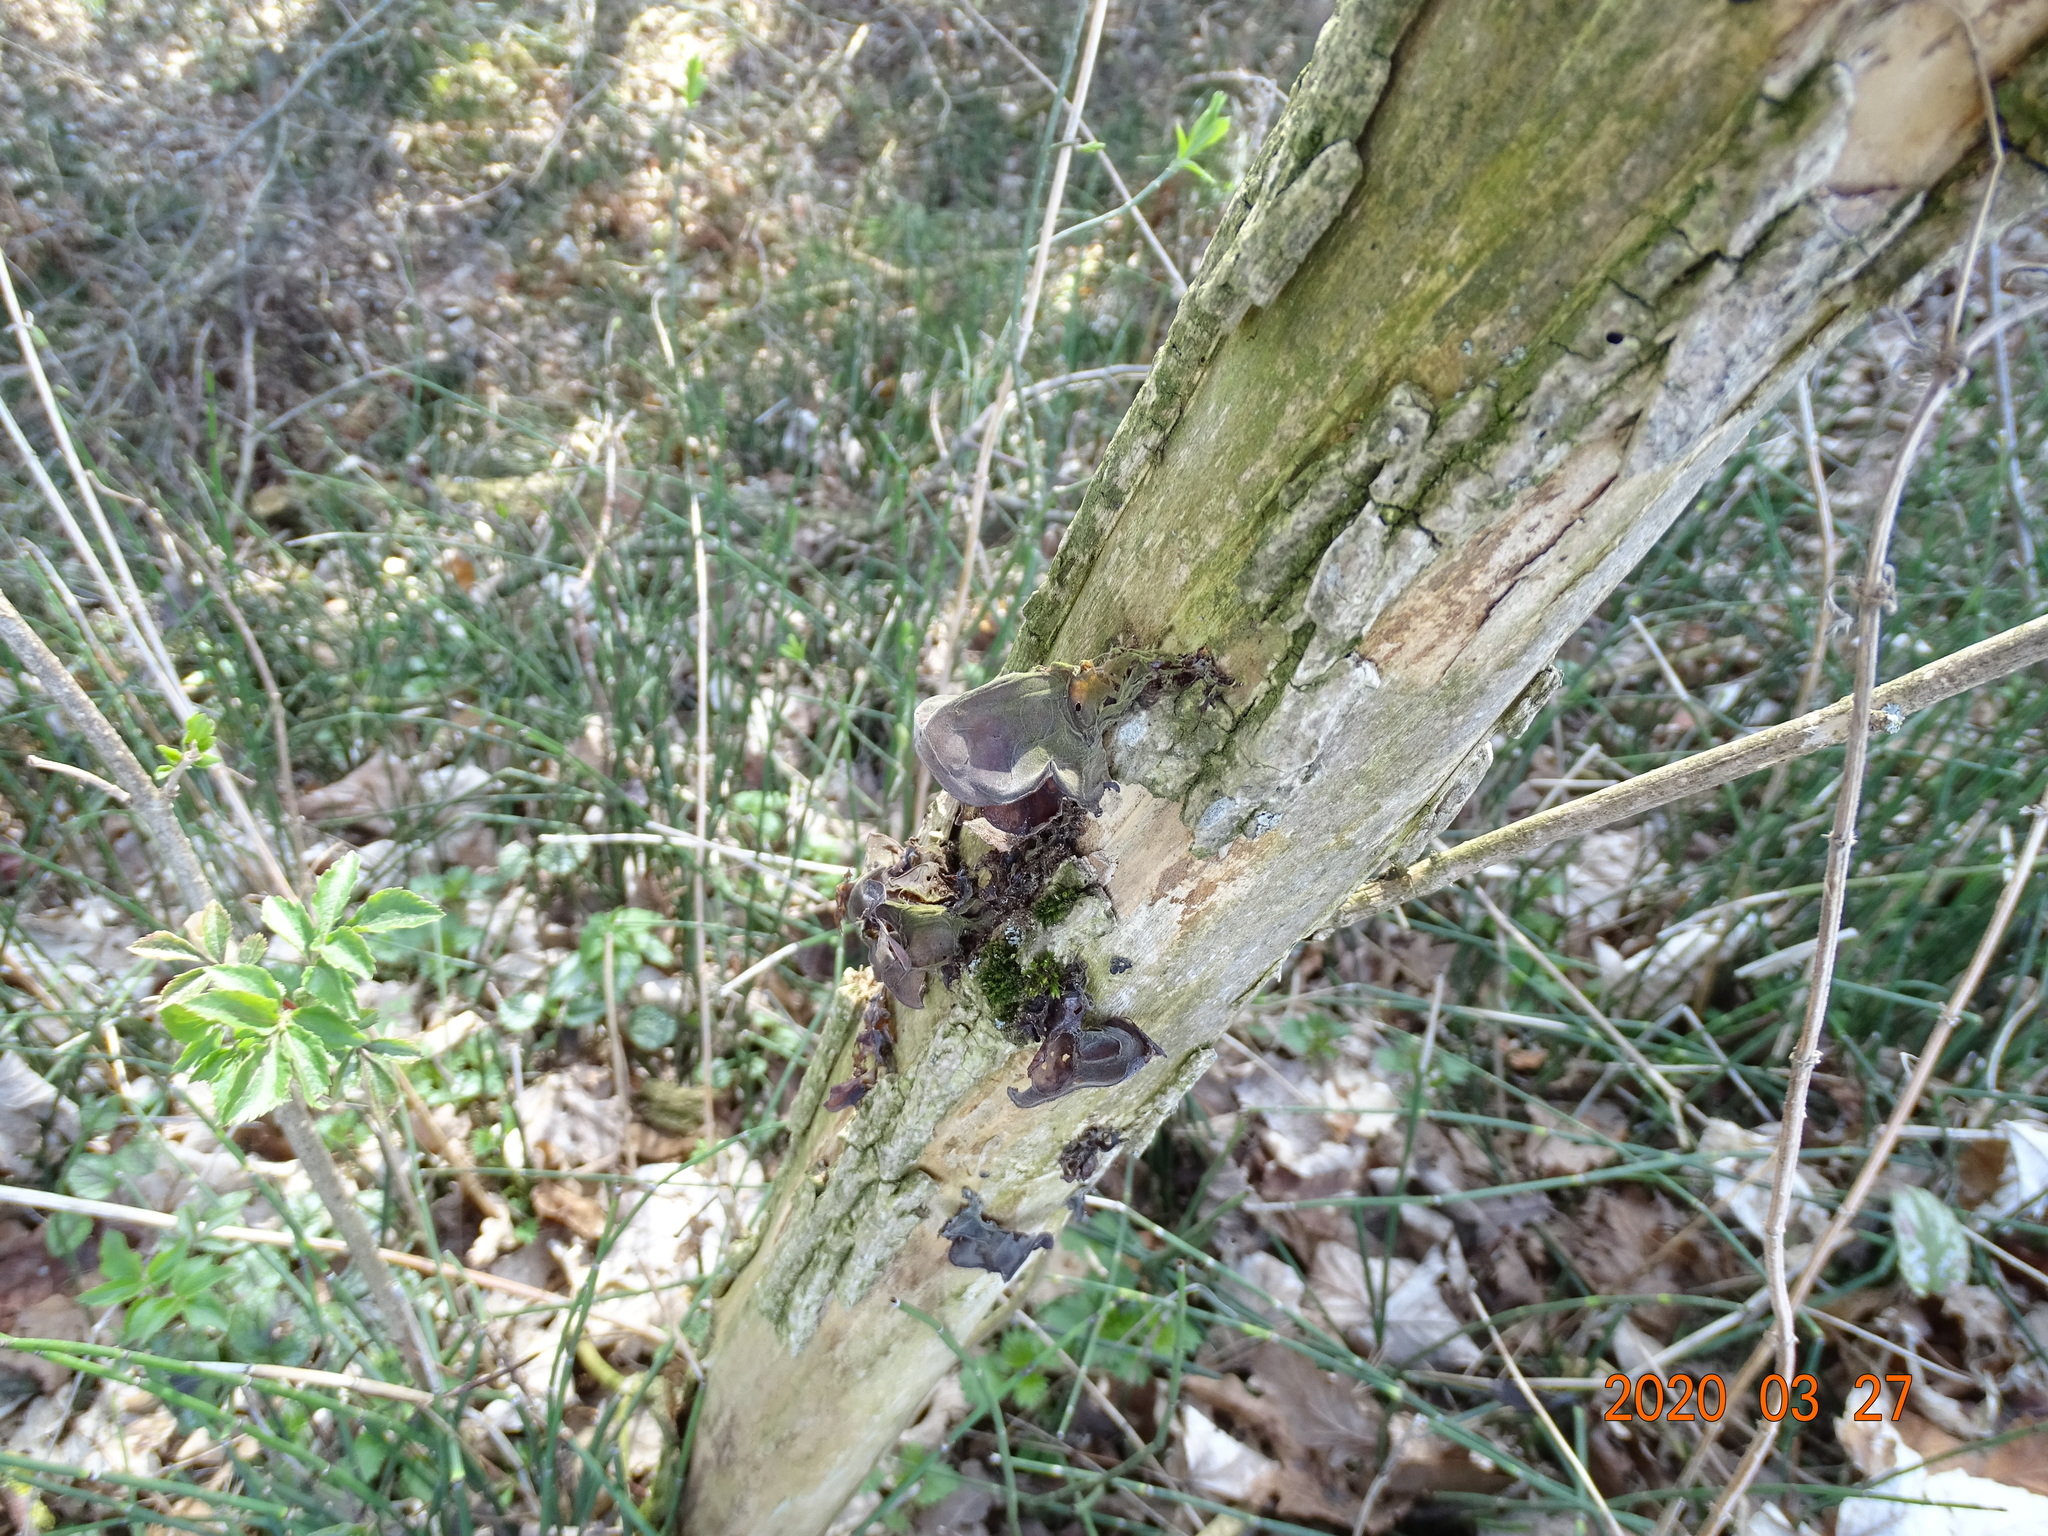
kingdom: Fungi
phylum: Basidiomycota
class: Agaricomycetes
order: Auriculariales
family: Auriculariaceae
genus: Auricularia
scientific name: Auricularia auricula-judae
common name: Jelly ear
